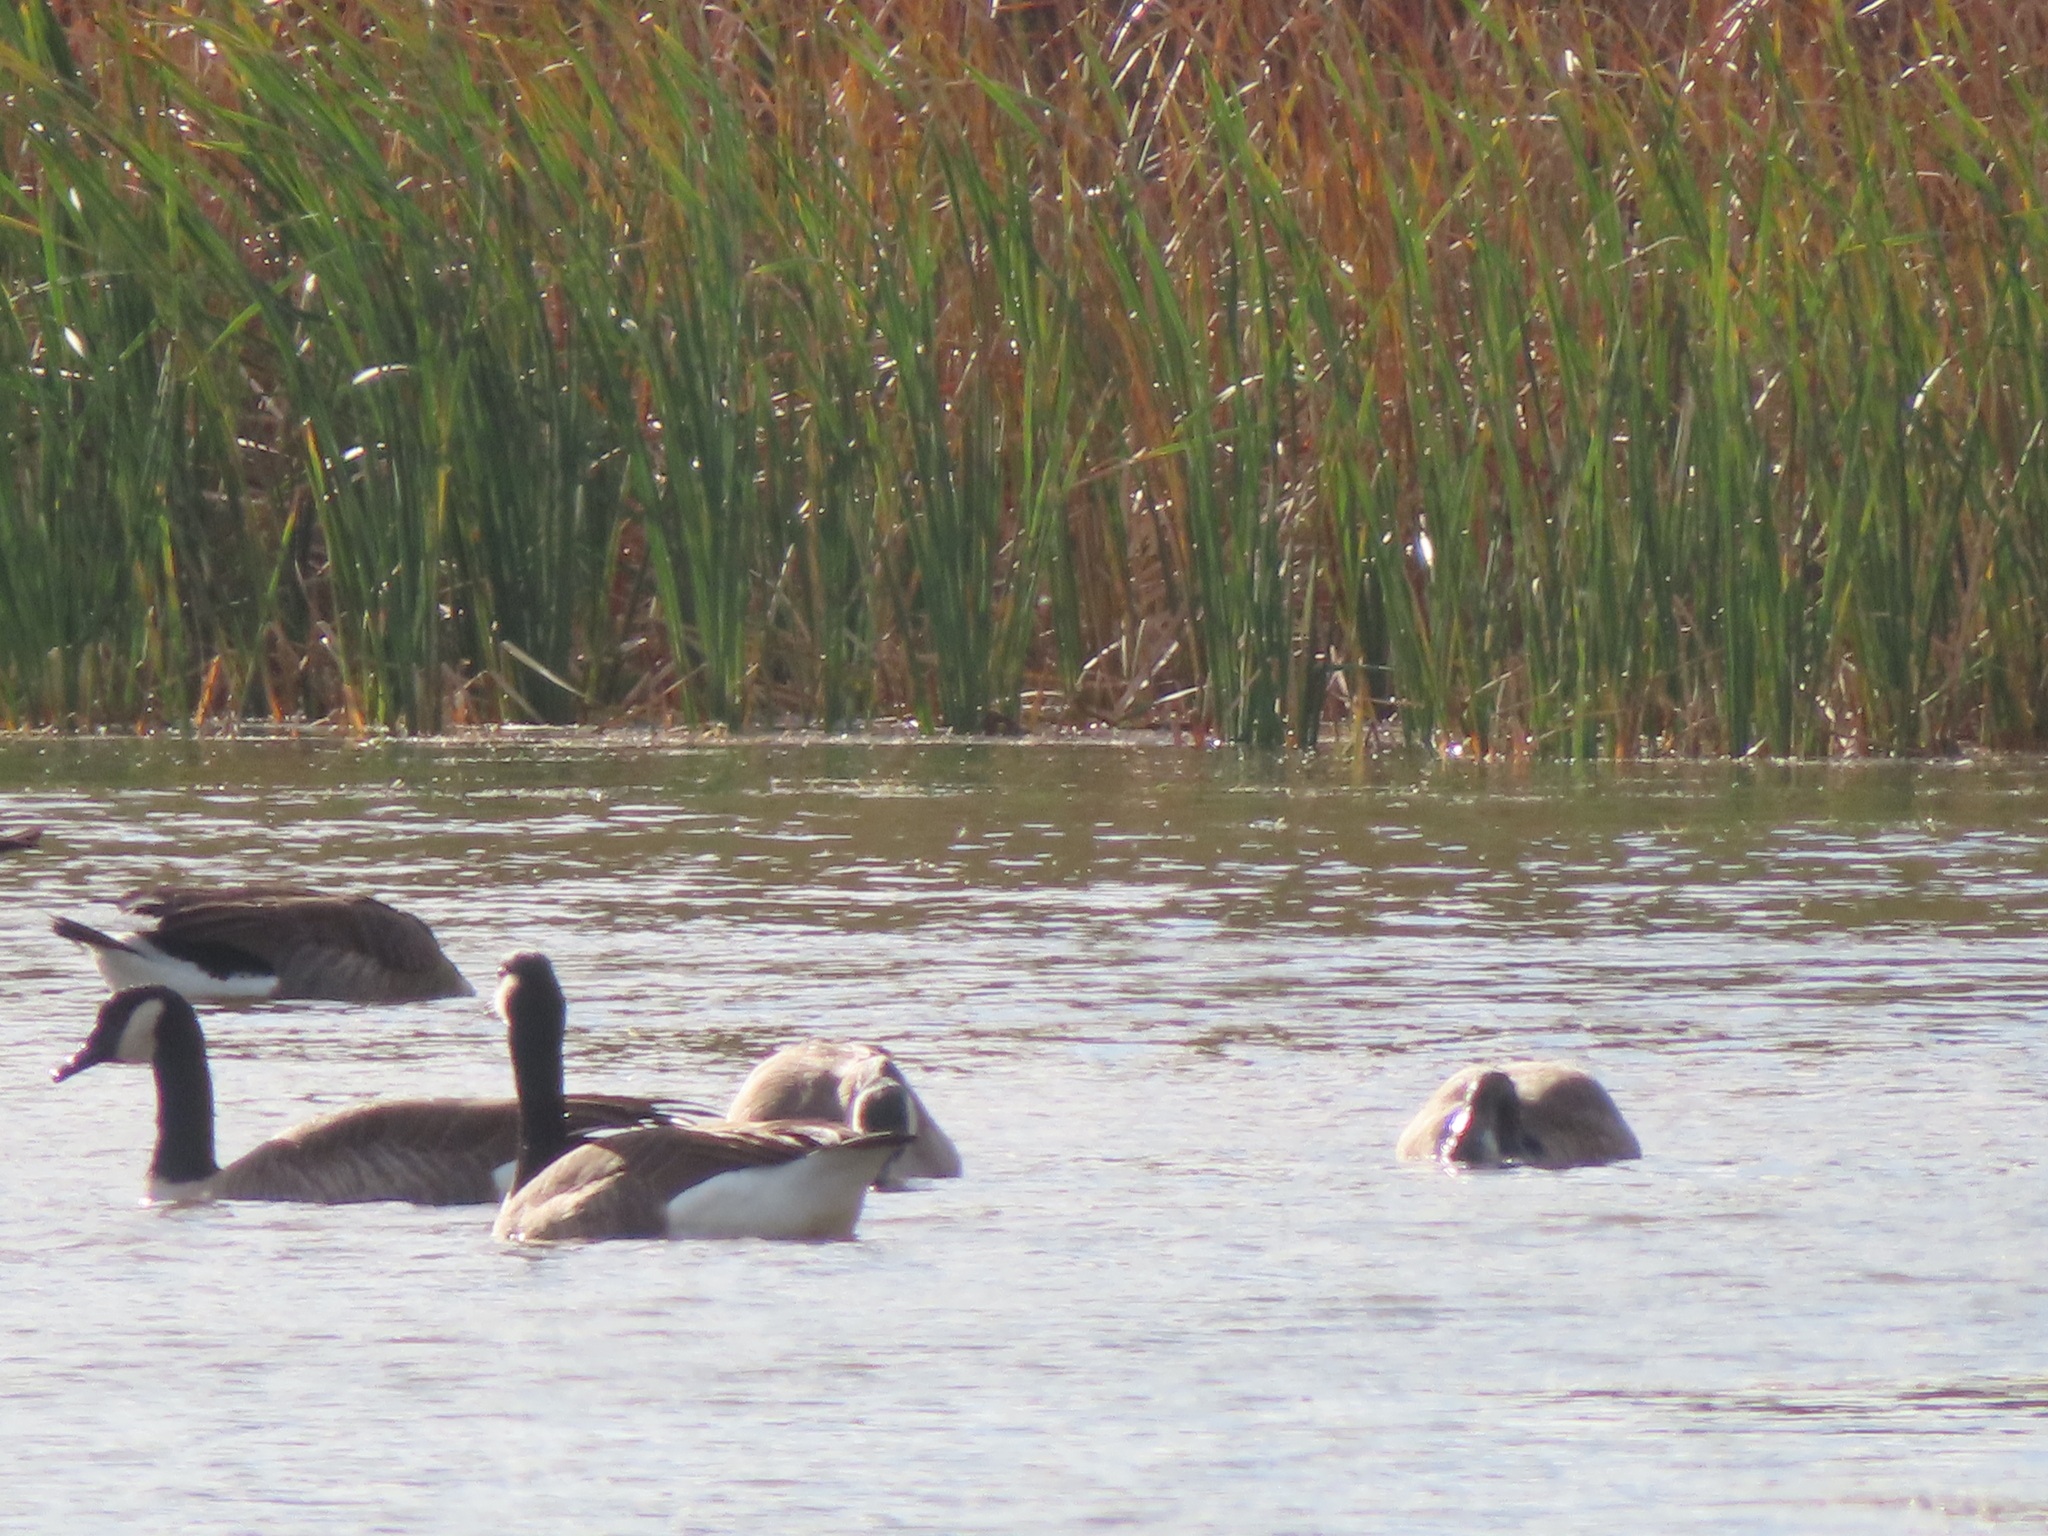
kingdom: Animalia
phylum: Chordata
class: Aves
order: Anseriformes
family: Anatidae
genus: Branta
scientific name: Branta canadensis
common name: Canada goose
